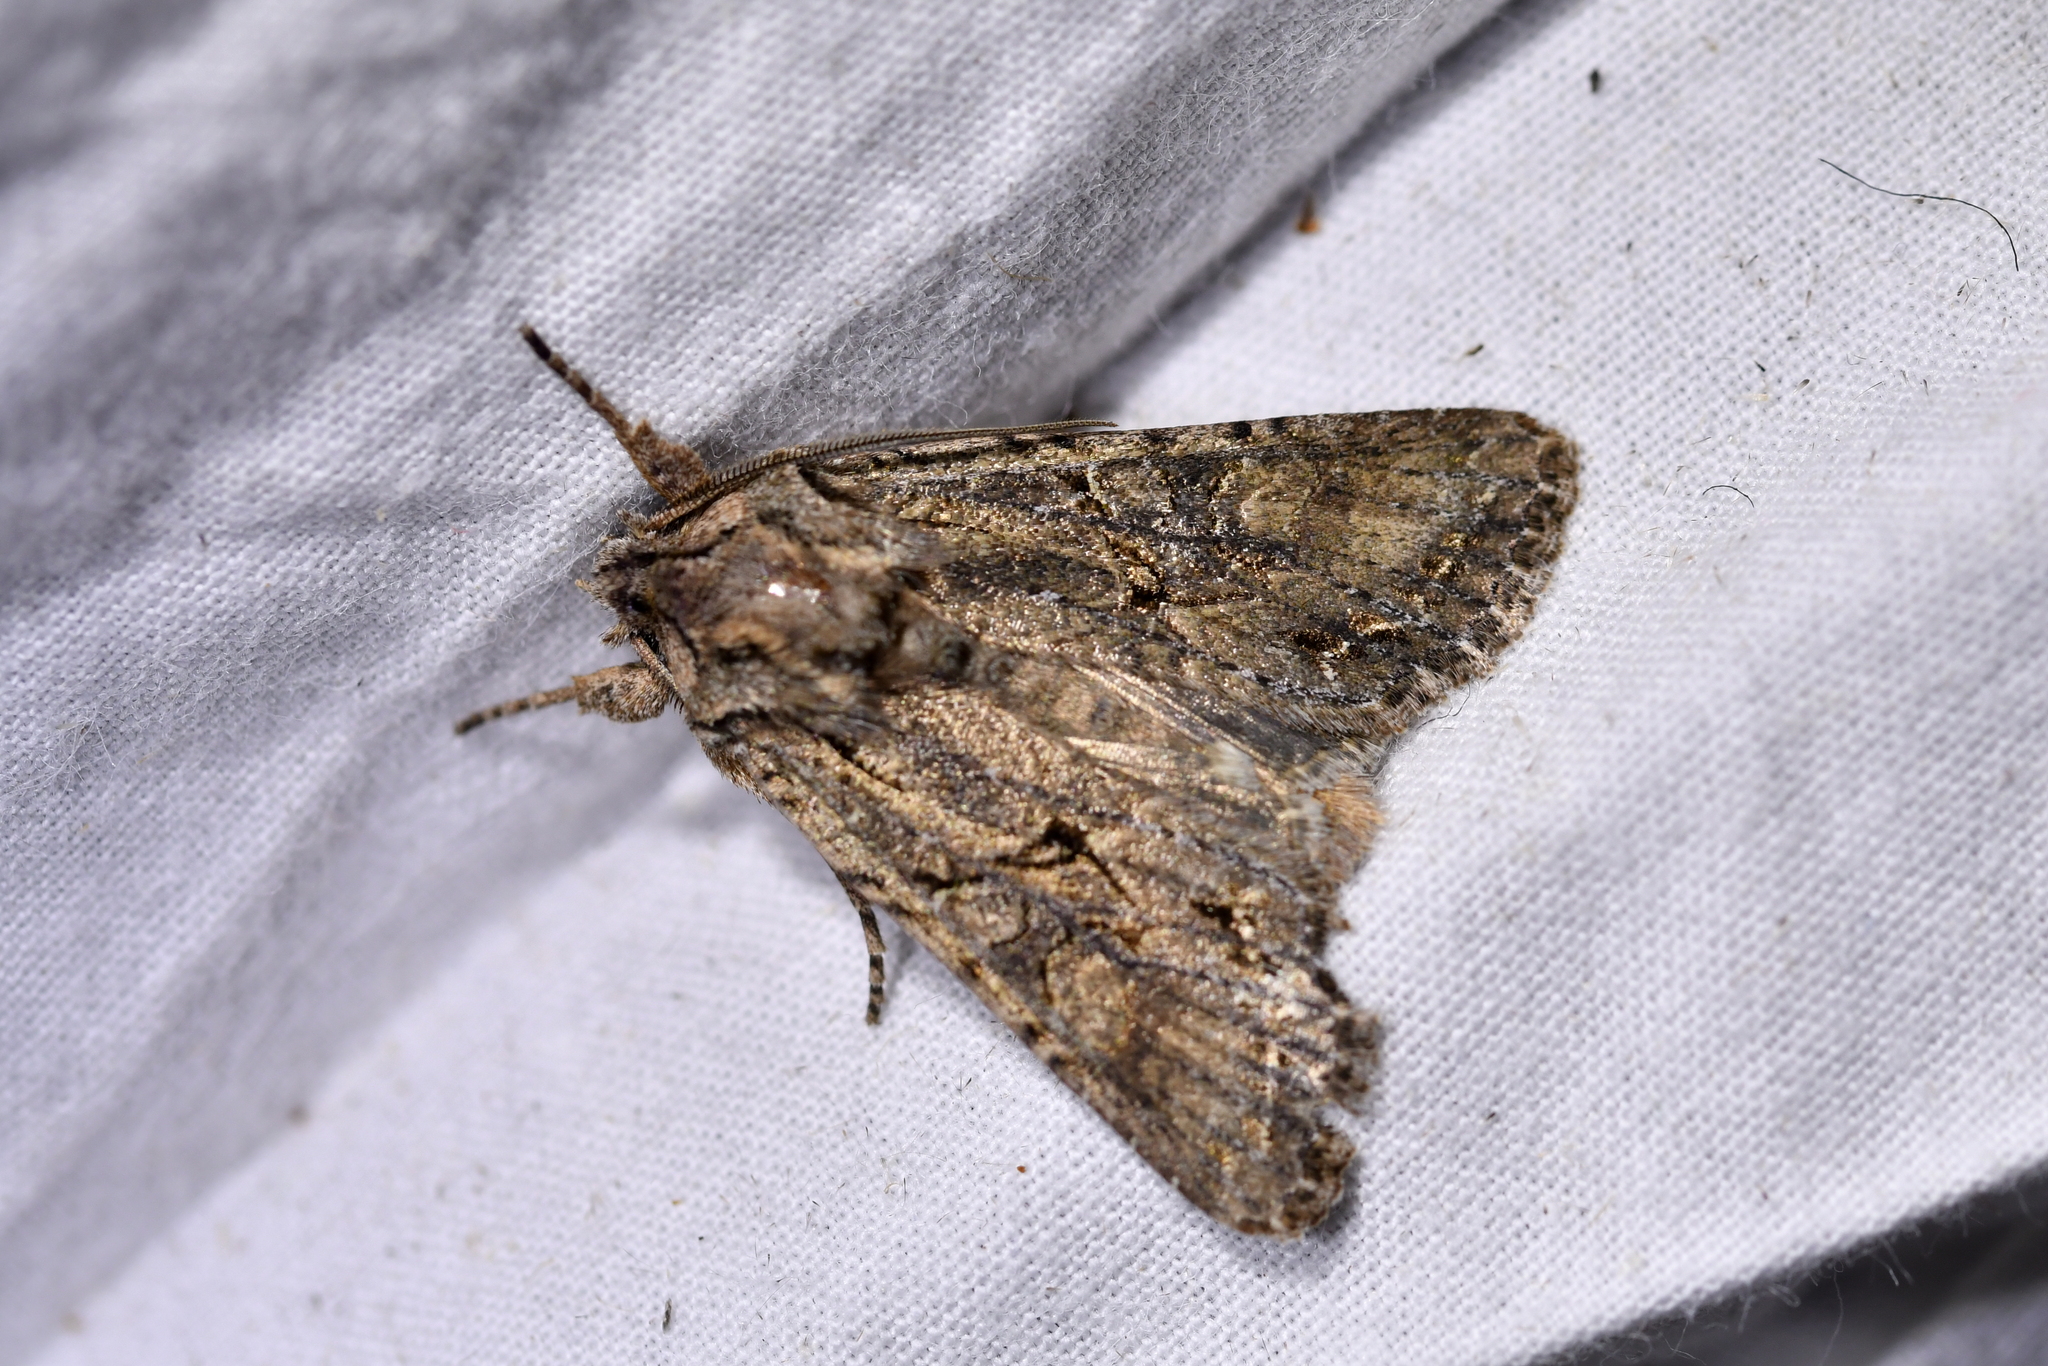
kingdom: Animalia
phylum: Arthropoda
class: Insecta
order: Lepidoptera
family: Noctuidae
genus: Ichneutica
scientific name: Ichneutica mutans
